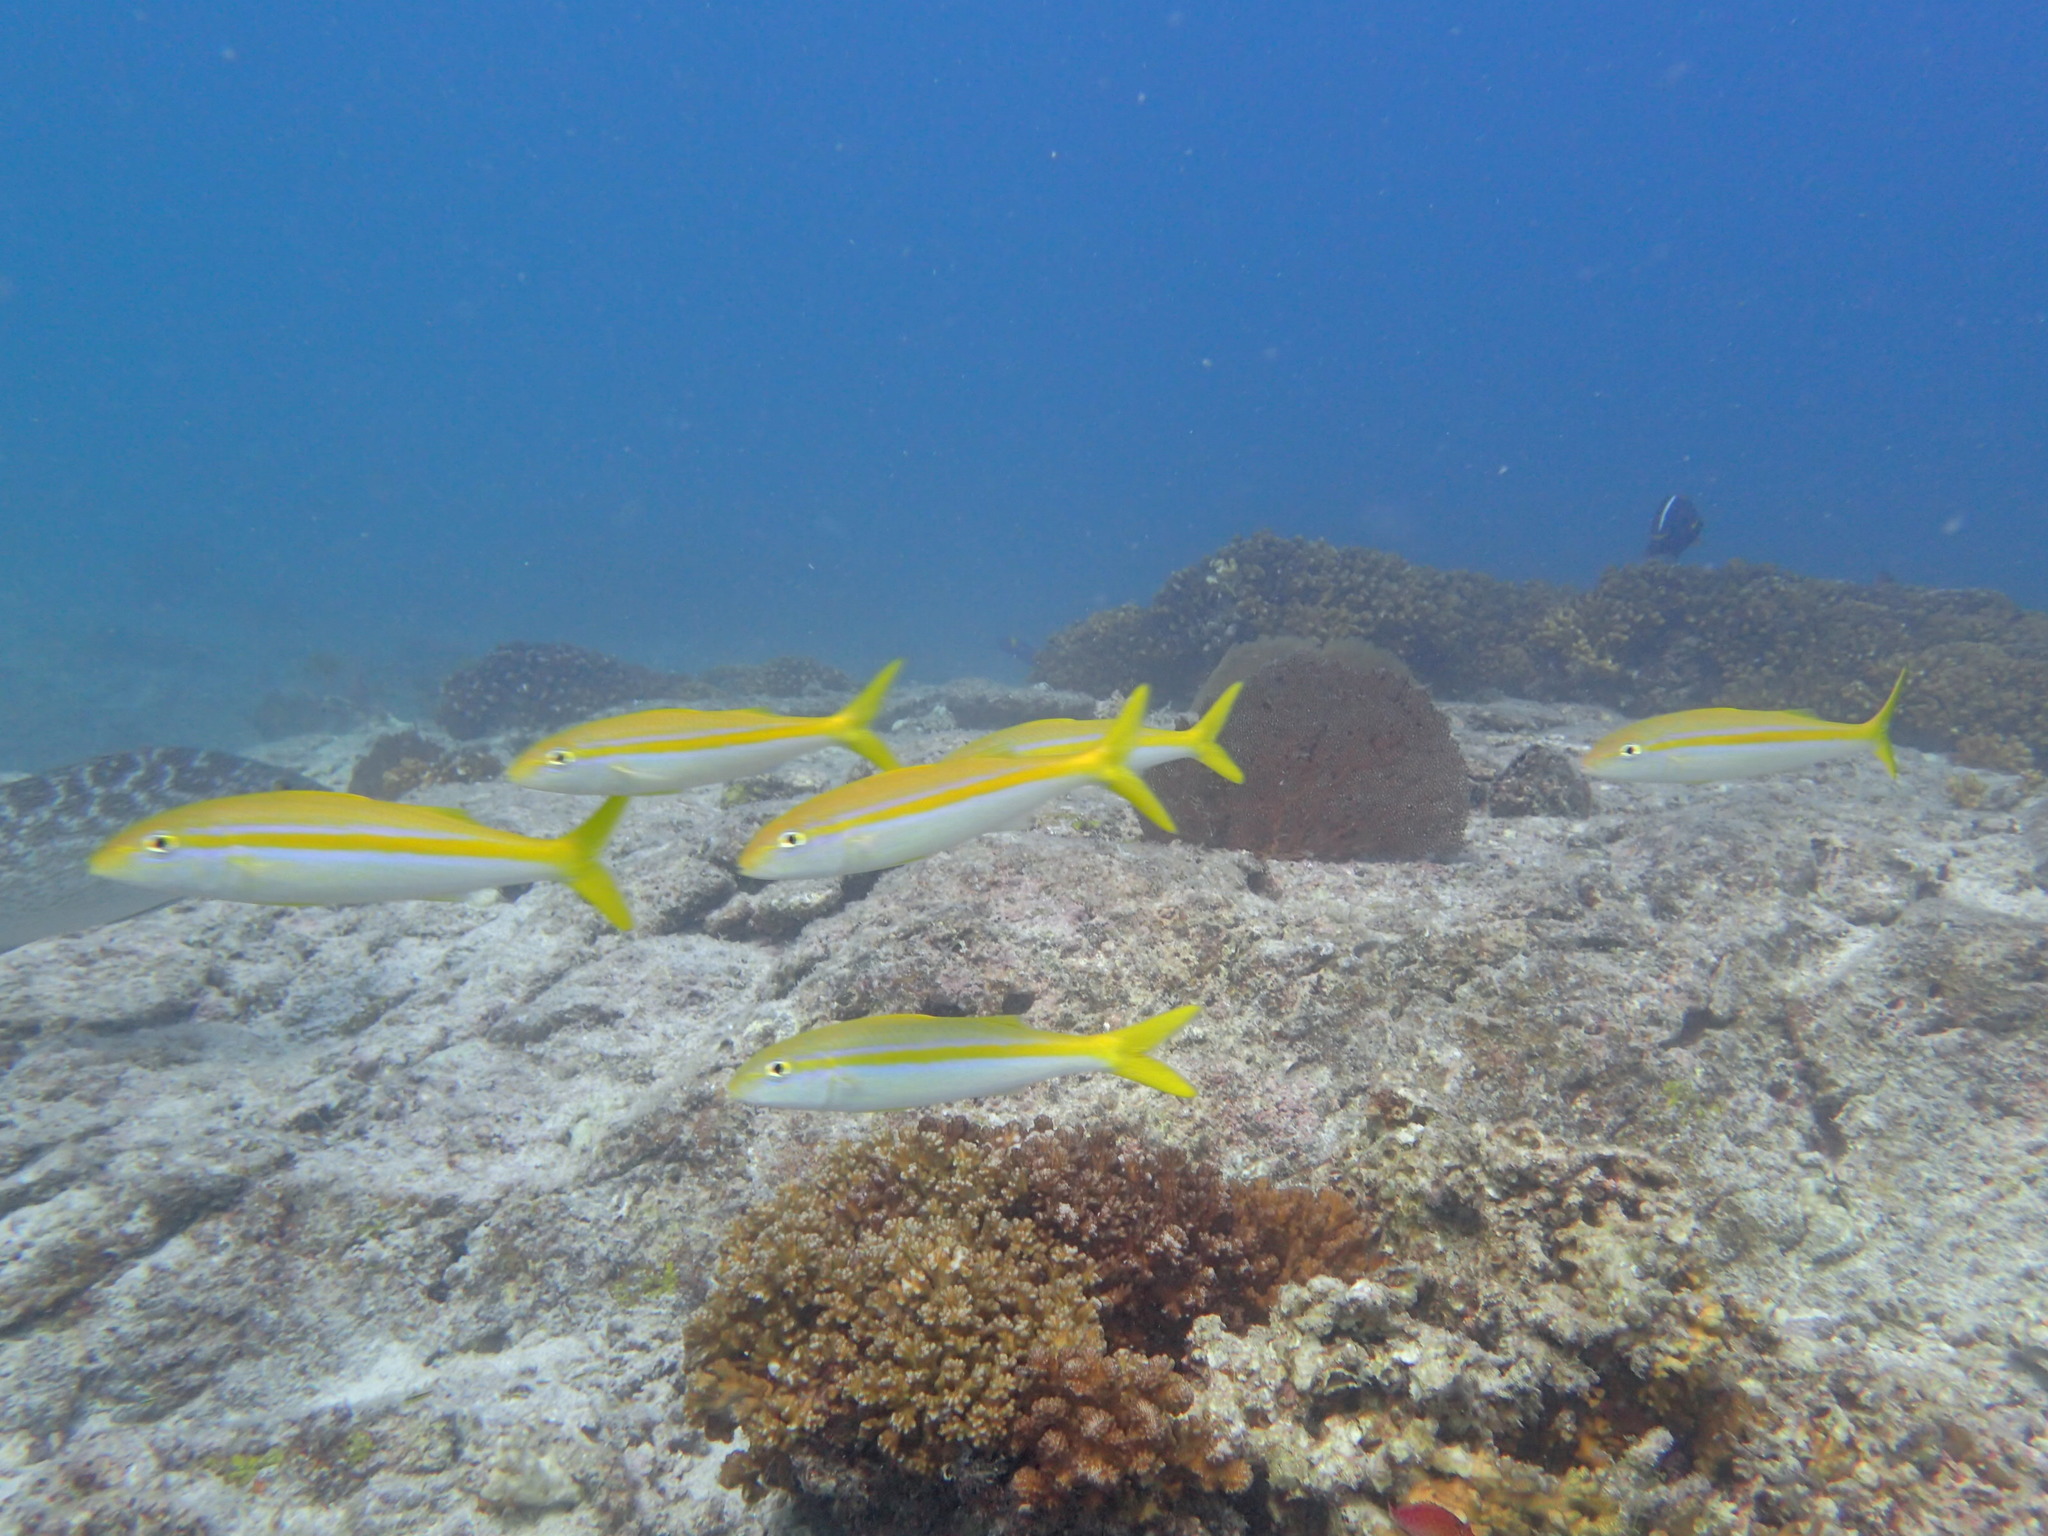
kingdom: Animalia
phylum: Chordata
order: Perciformes
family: Mullidae
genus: Mulloidichthys
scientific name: Mulloidichthys dentatus
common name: Mexican goatfish
